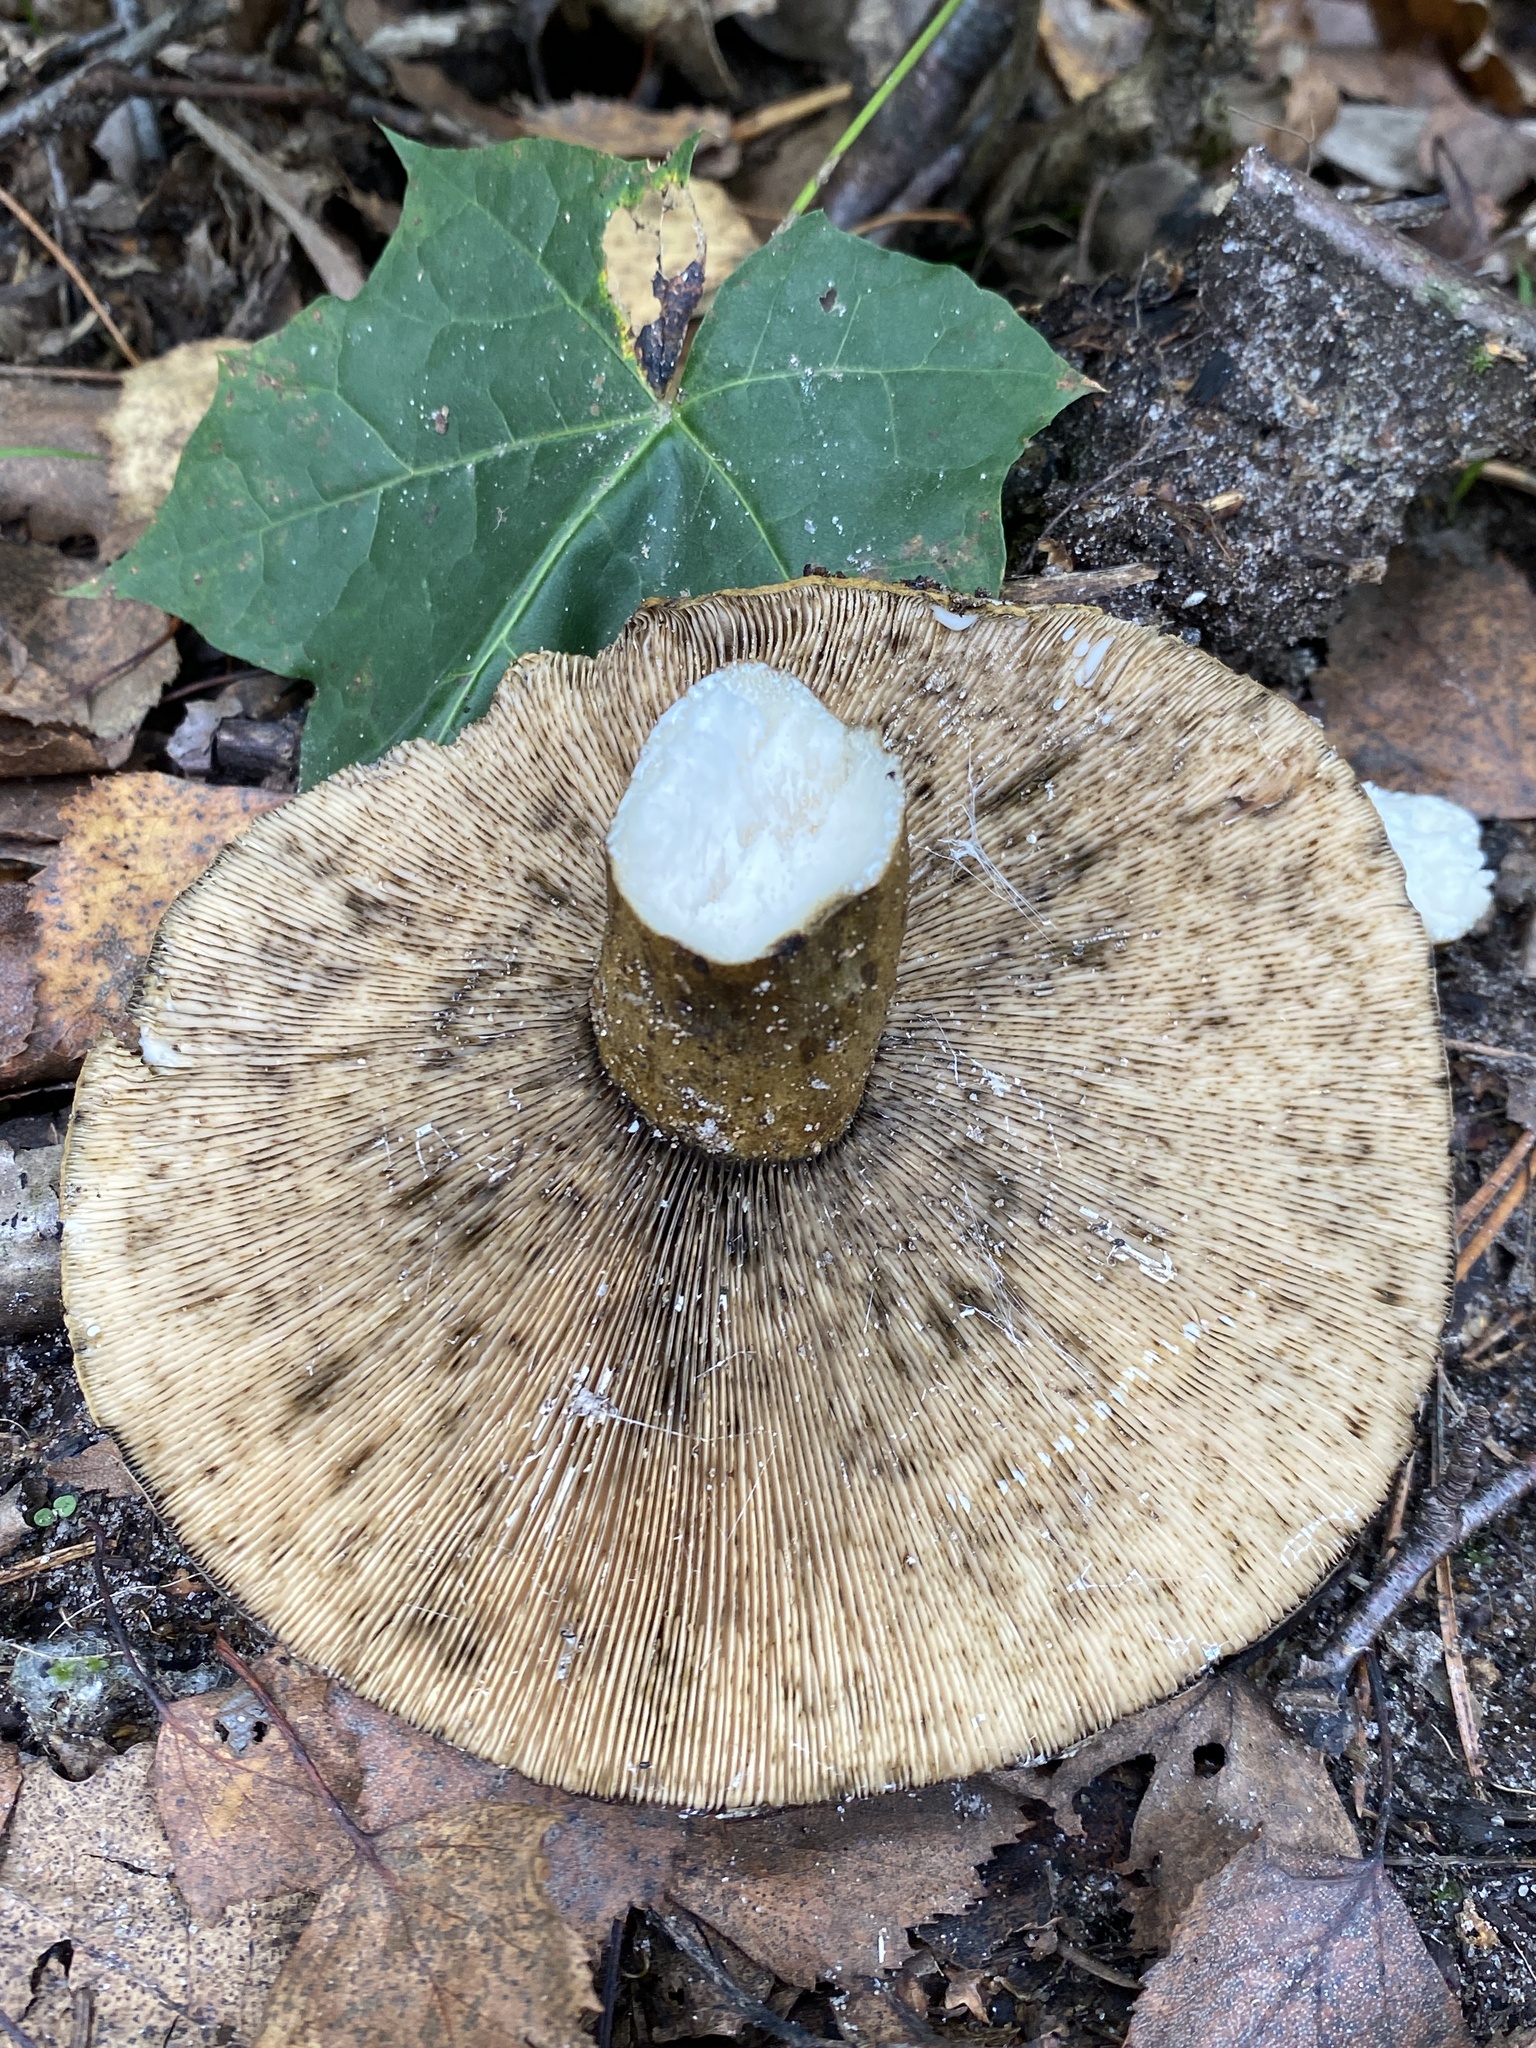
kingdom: Fungi
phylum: Basidiomycota
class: Agaricomycetes
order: Russulales
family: Russulaceae
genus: Lactarius
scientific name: Lactarius turpis
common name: Ugly milk-cap
